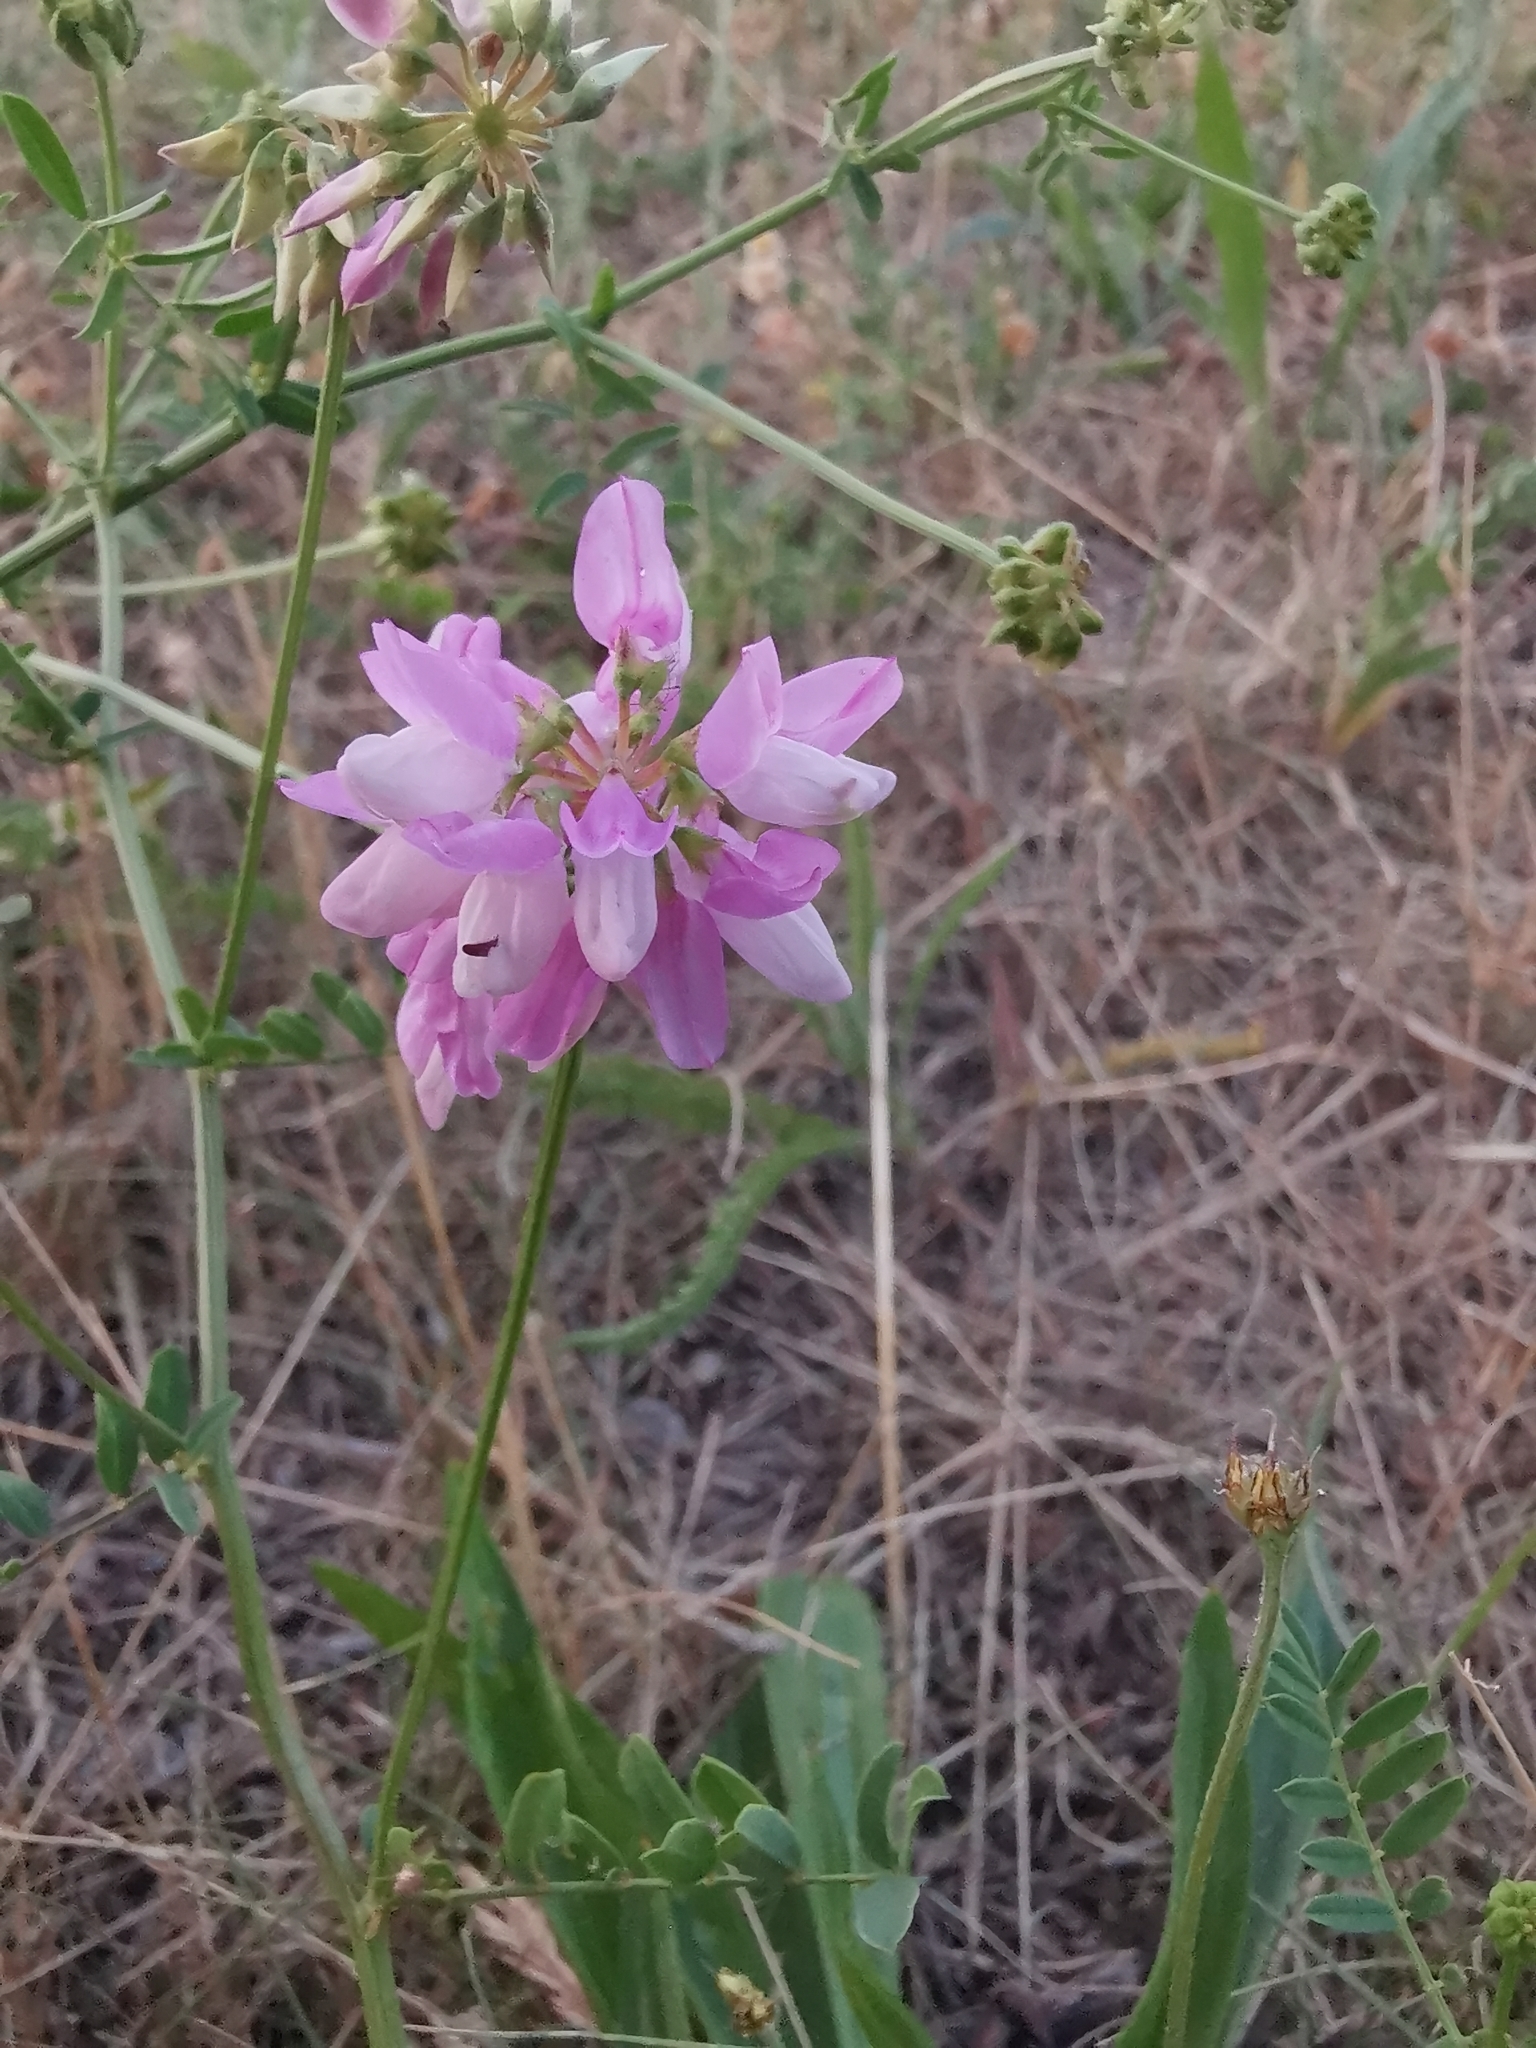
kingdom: Plantae
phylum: Tracheophyta
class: Magnoliopsida
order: Fabales
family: Fabaceae
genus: Coronilla
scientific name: Coronilla varia
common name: Crownvetch
